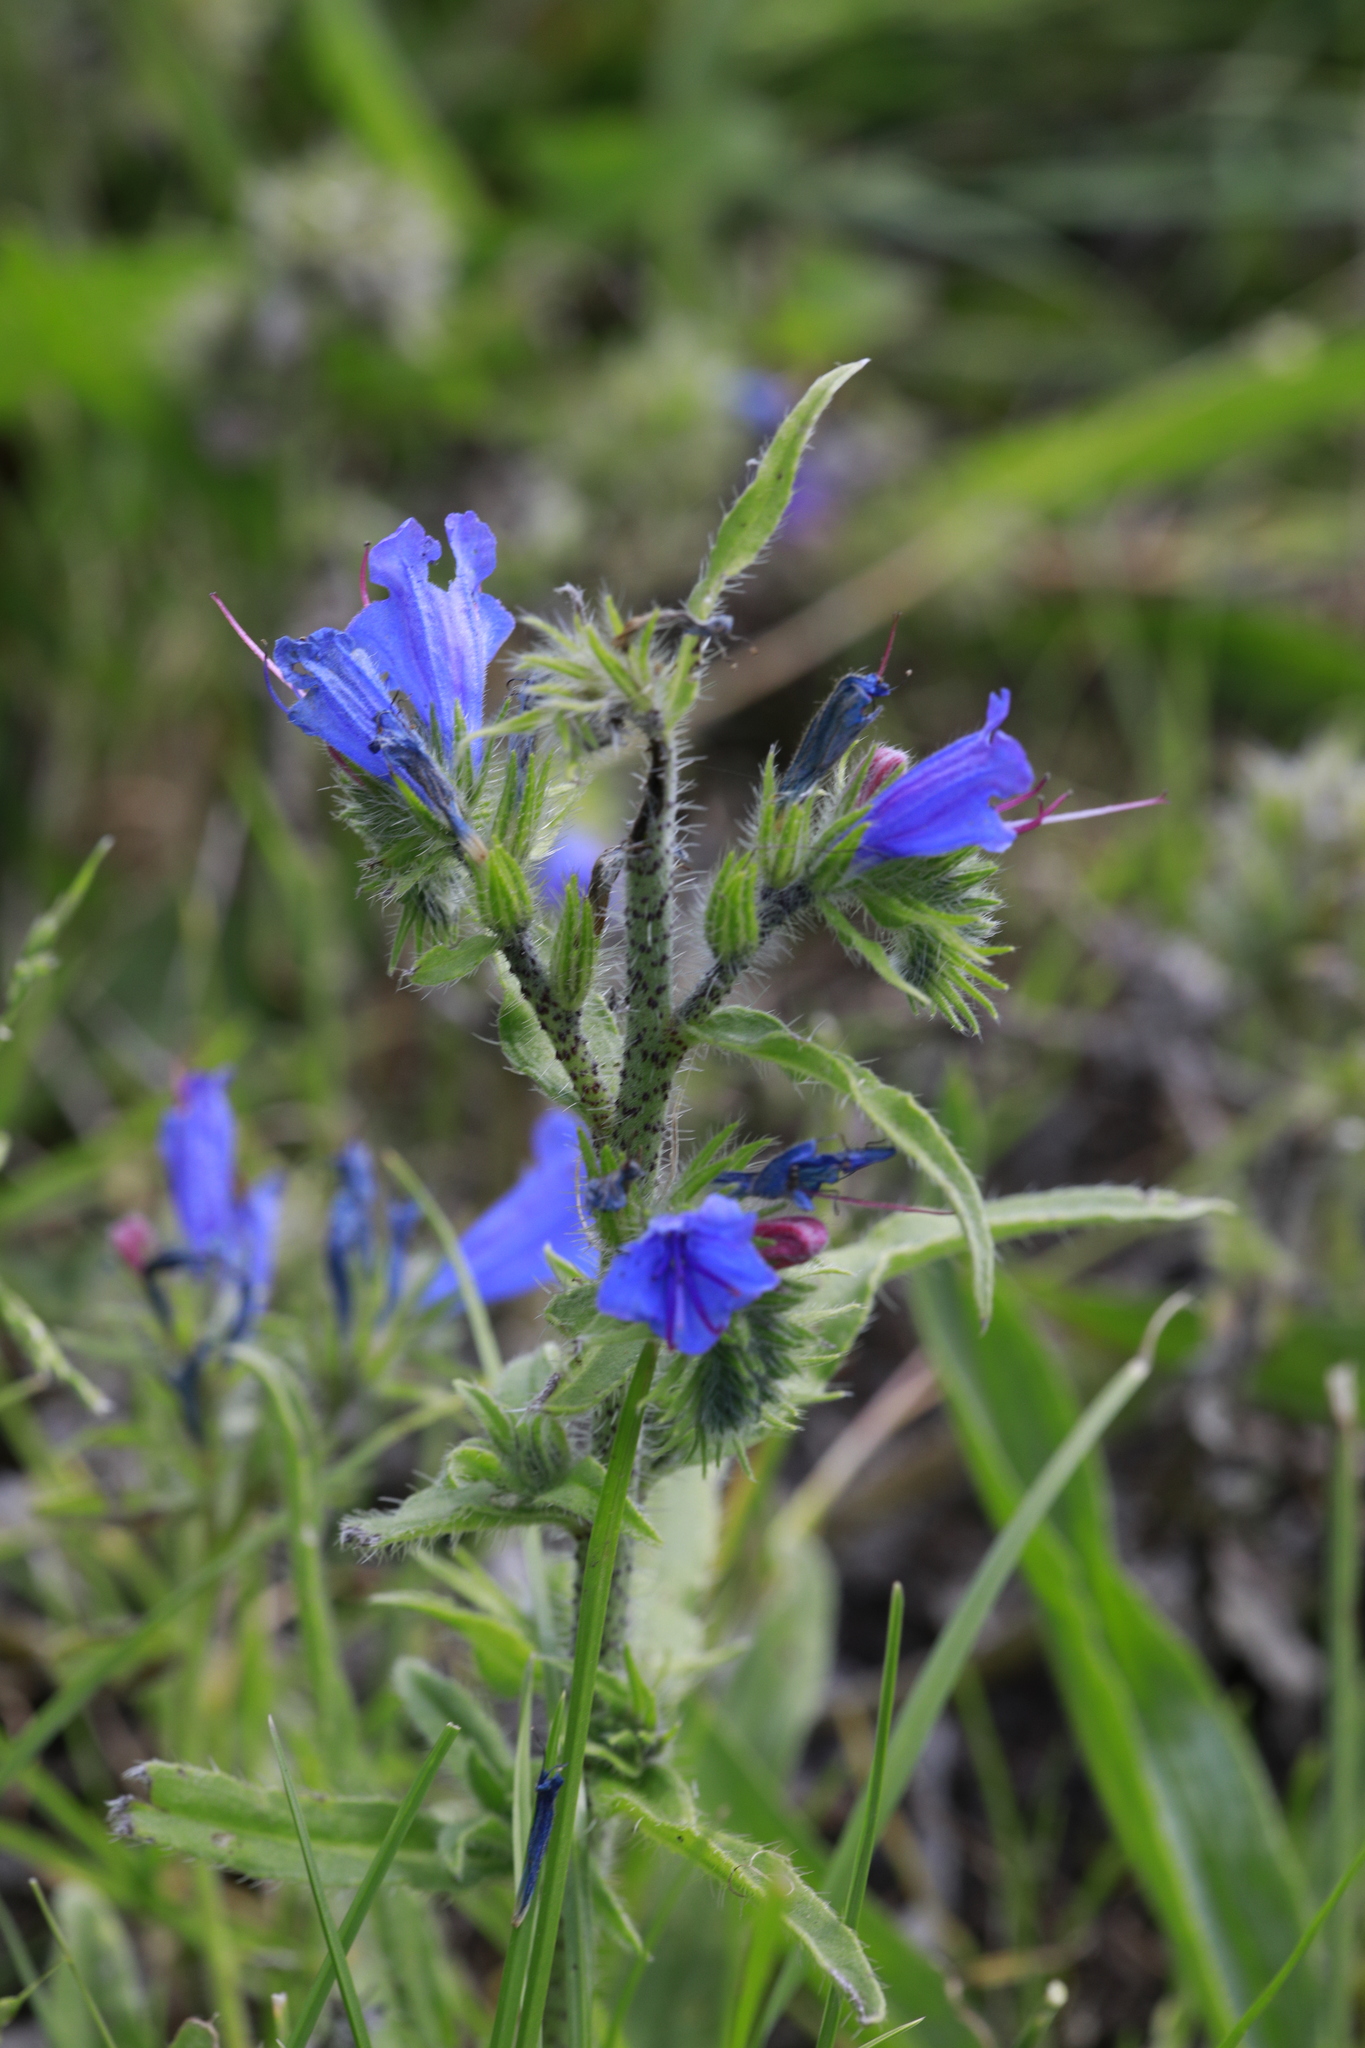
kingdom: Plantae
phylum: Tracheophyta
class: Magnoliopsida
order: Boraginales
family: Boraginaceae
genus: Echium
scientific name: Echium vulgare
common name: Common viper's bugloss
